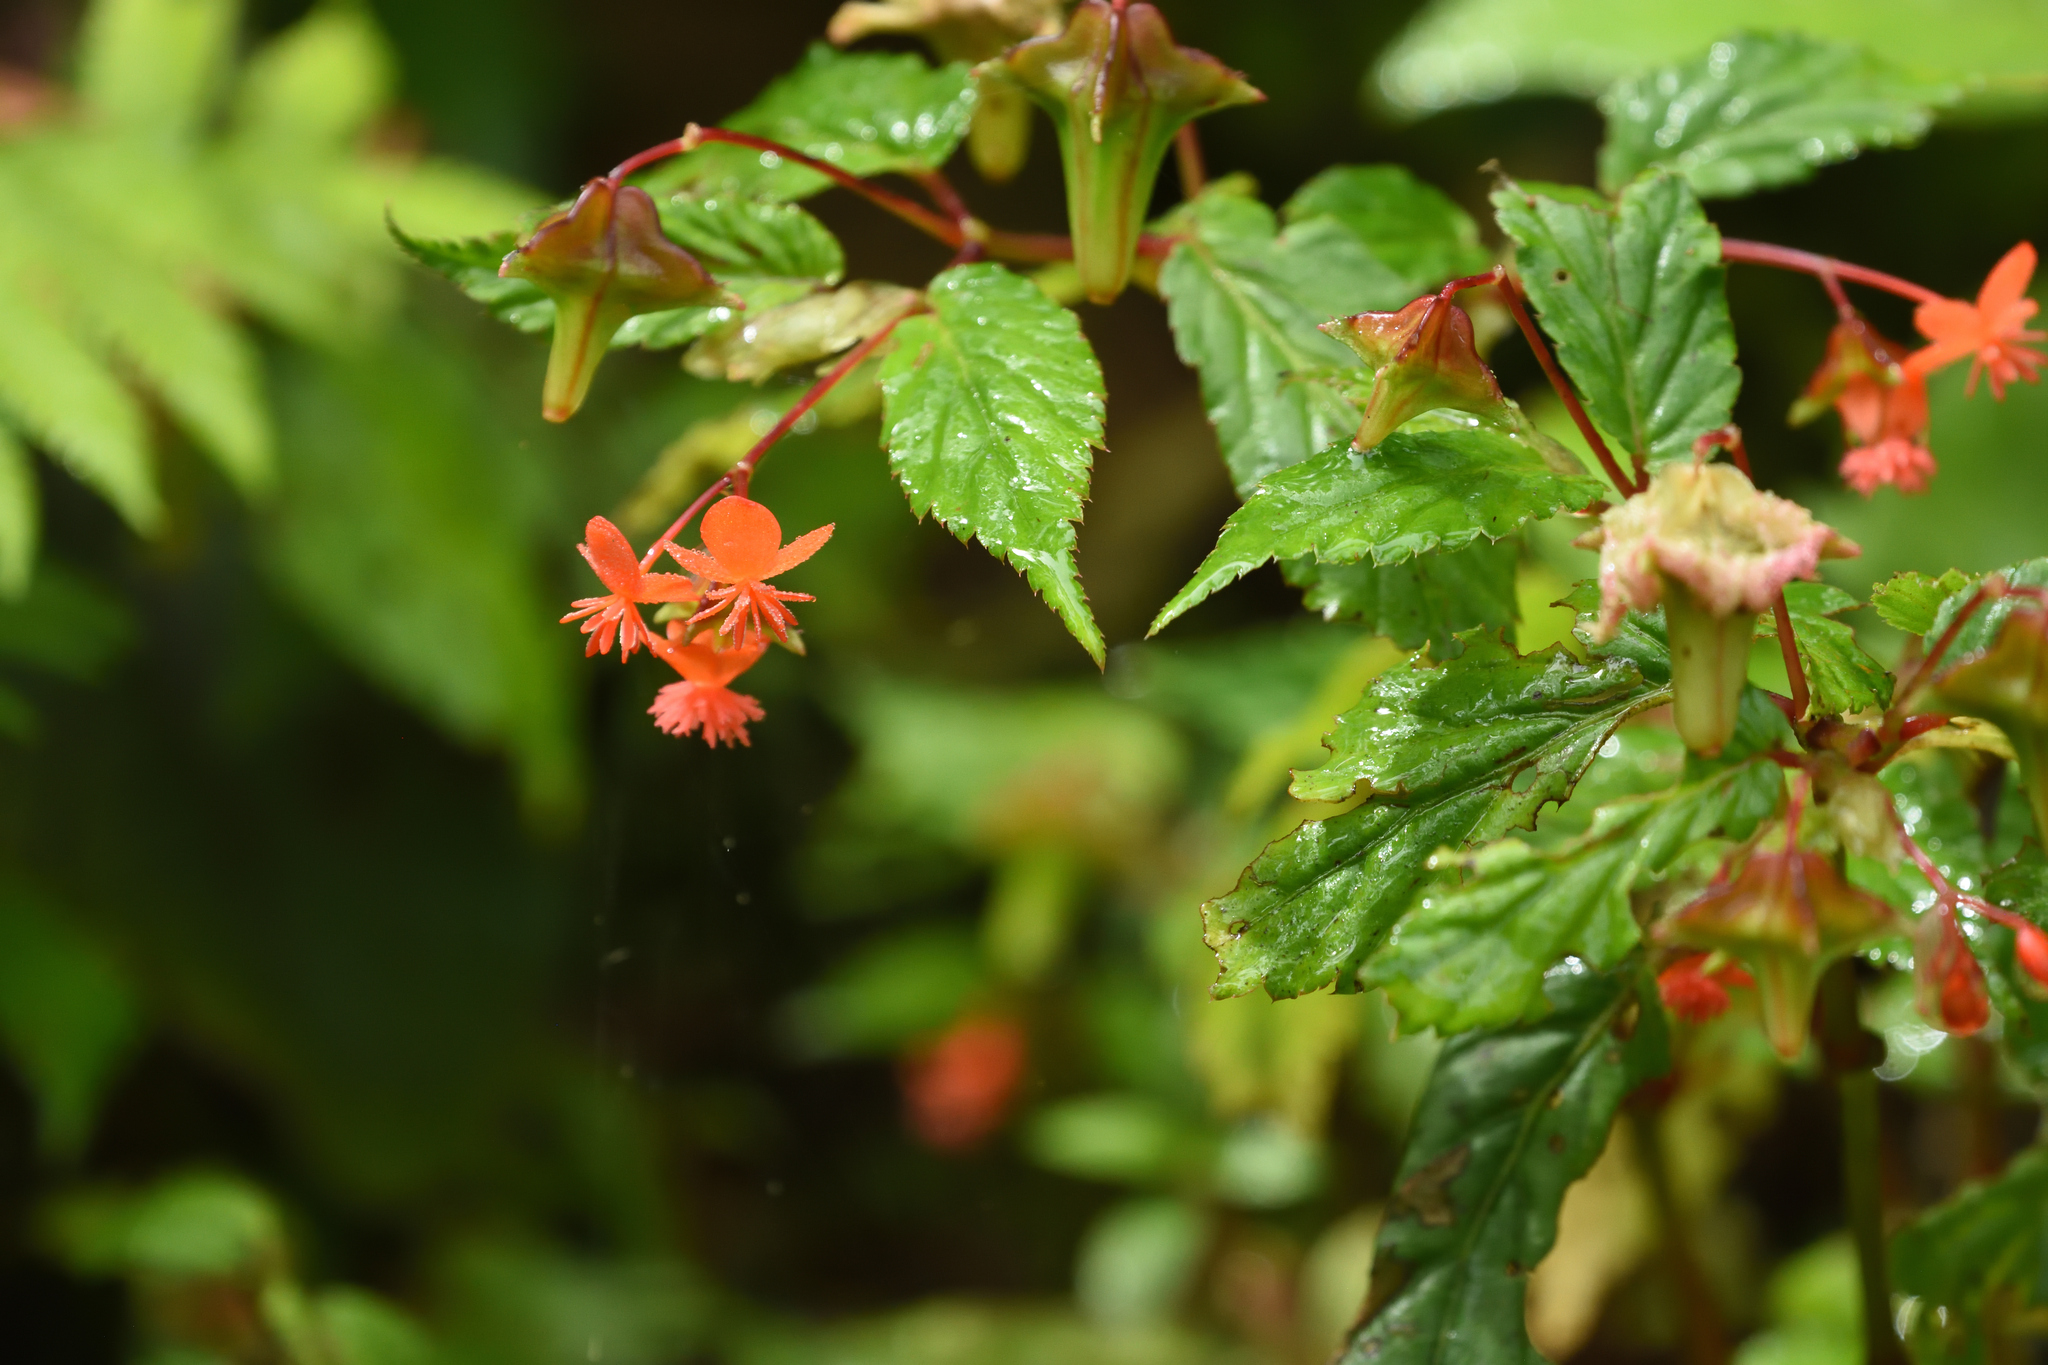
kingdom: Plantae
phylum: Tracheophyta
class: Magnoliopsida
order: Cucurbitales
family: Begoniaceae
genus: Begonia
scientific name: Begonia urticae
